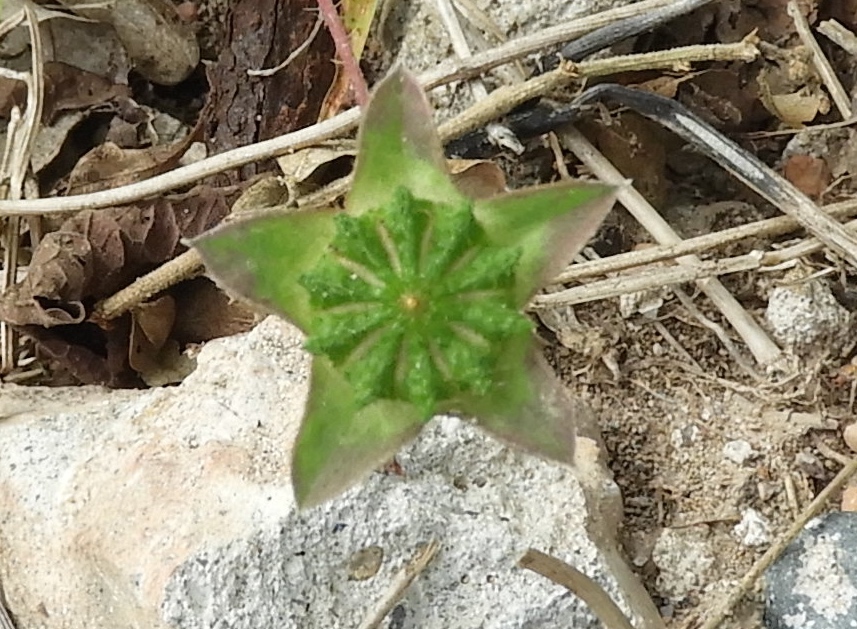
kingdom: Plantae
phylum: Tracheophyta
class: Magnoliopsida
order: Malvales
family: Malvaceae
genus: Anoda
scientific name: Anoda cristata
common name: Spurred anoda
